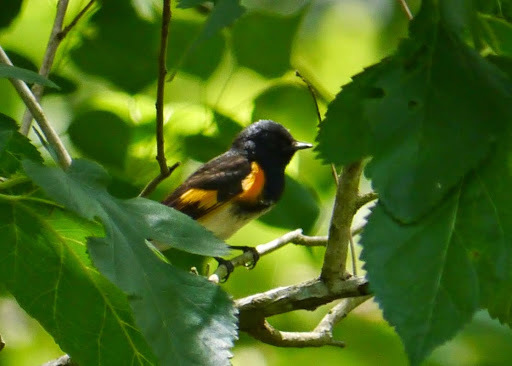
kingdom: Animalia
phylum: Chordata
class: Aves
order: Passeriformes
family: Parulidae
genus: Setophaga
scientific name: Setophaga ruticilla
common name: American redstart
